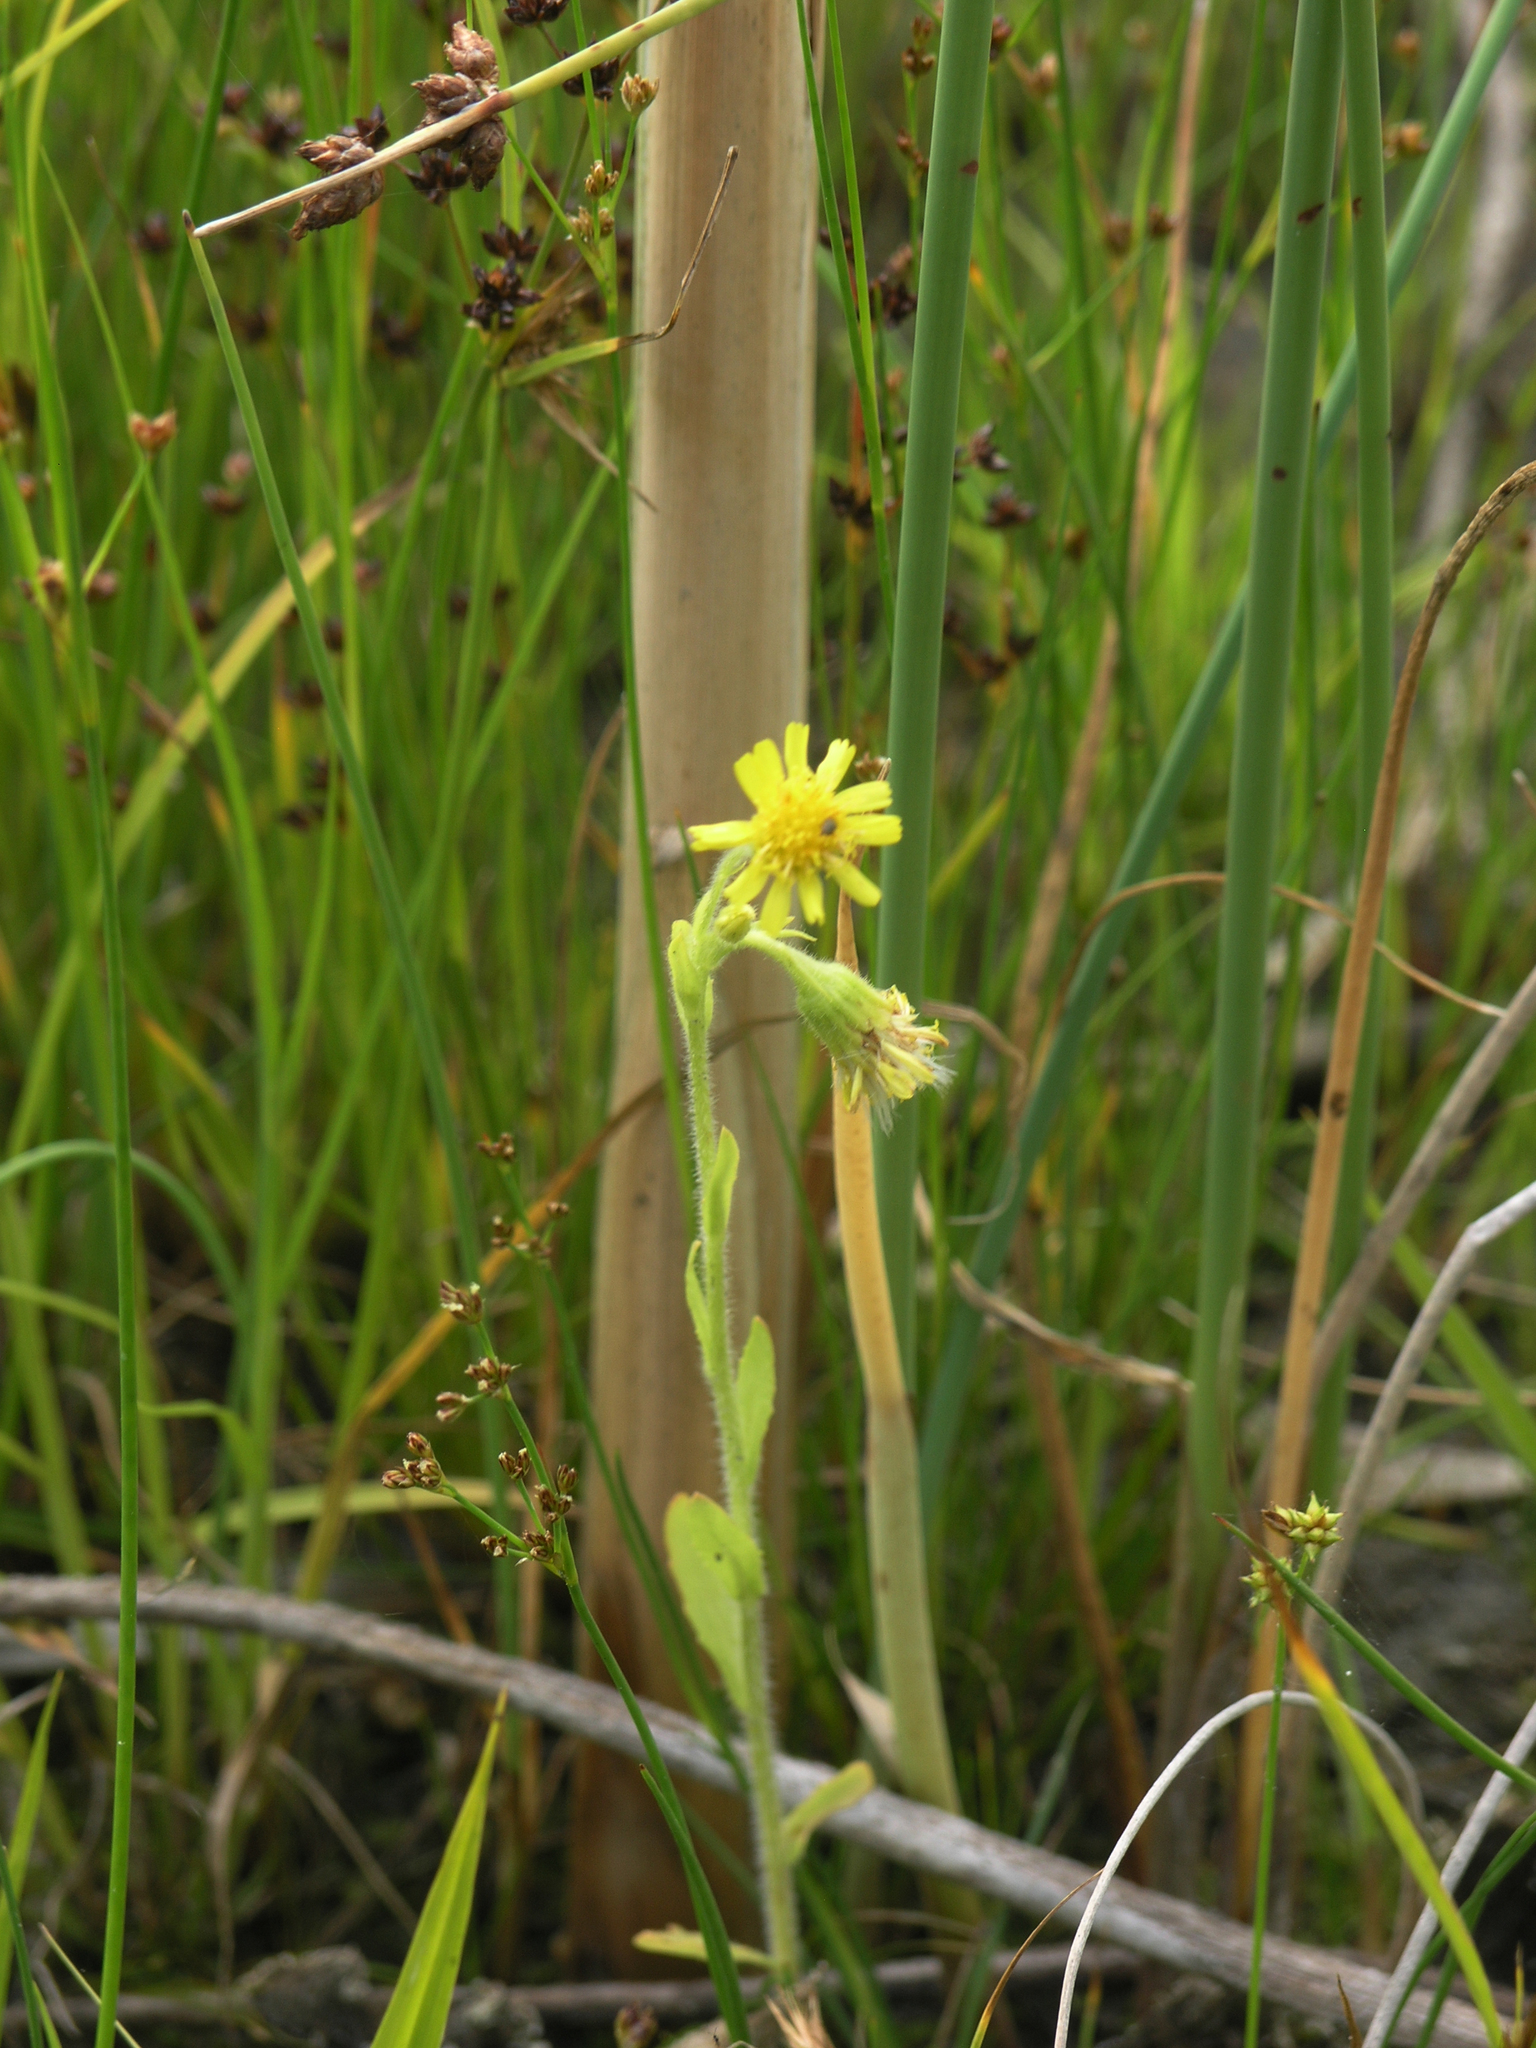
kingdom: Plantae
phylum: Tracheophyta
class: Magnoliopsida
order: Asterales
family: Asteraceae
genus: Tephroseris
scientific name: Tephroseris palustris
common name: Marsh fleawort
